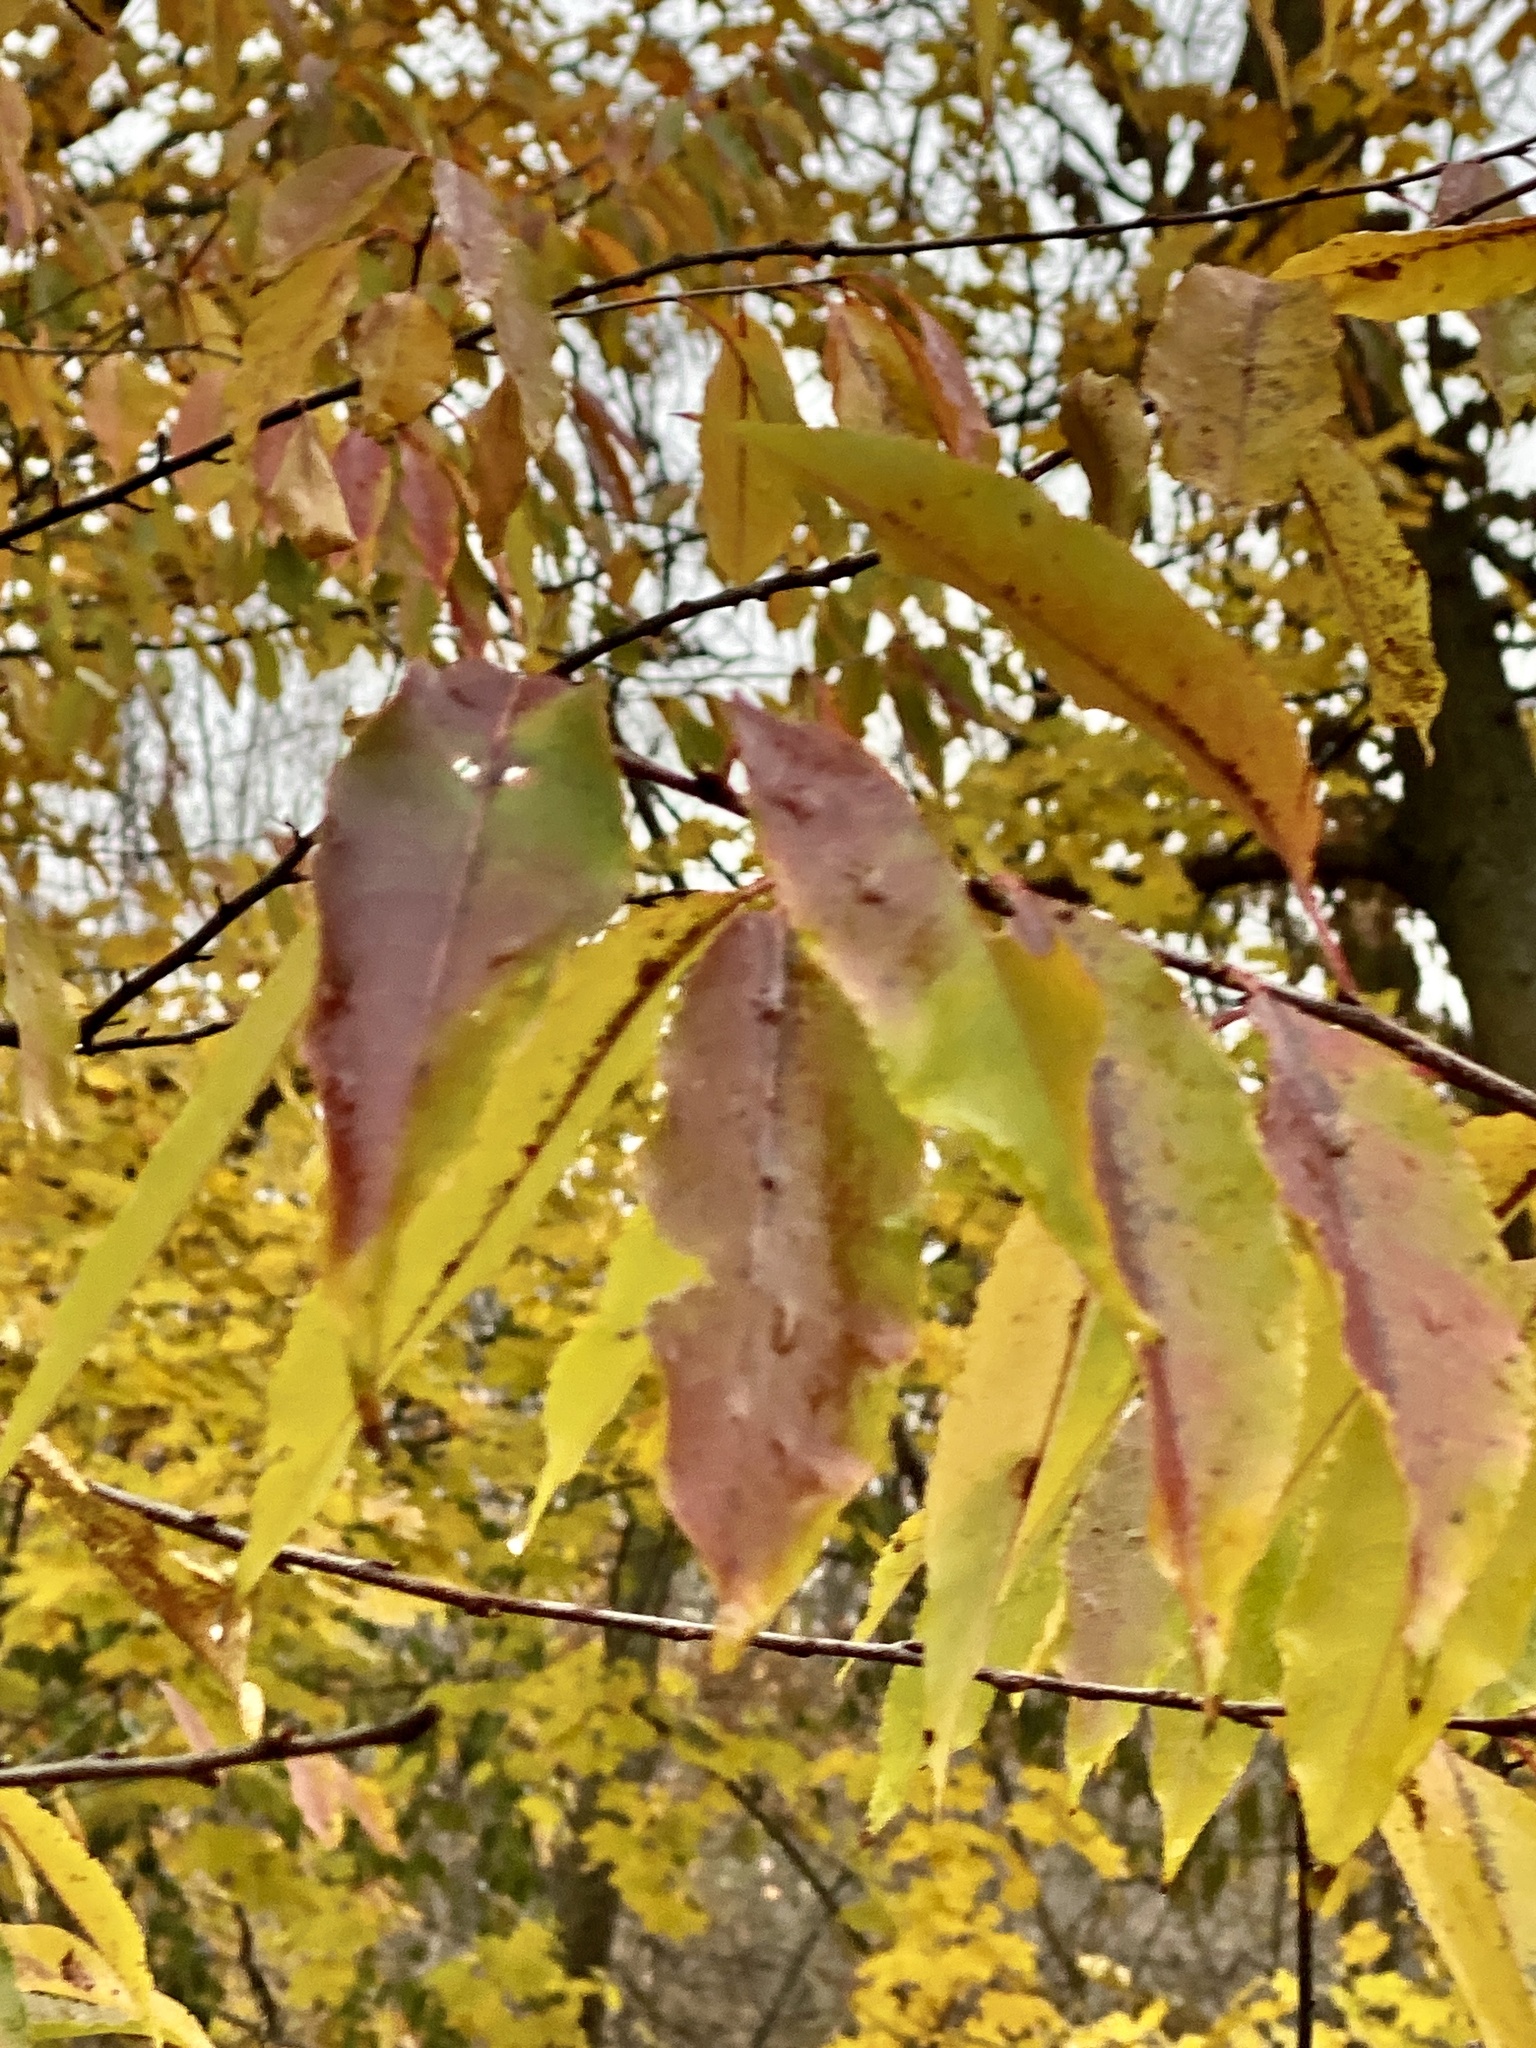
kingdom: Plantae
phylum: Tracheophyta
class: Magnoliopsida
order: Rosales
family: Rosaceae
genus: Prunus
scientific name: Prunus serotina
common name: Black cherry
